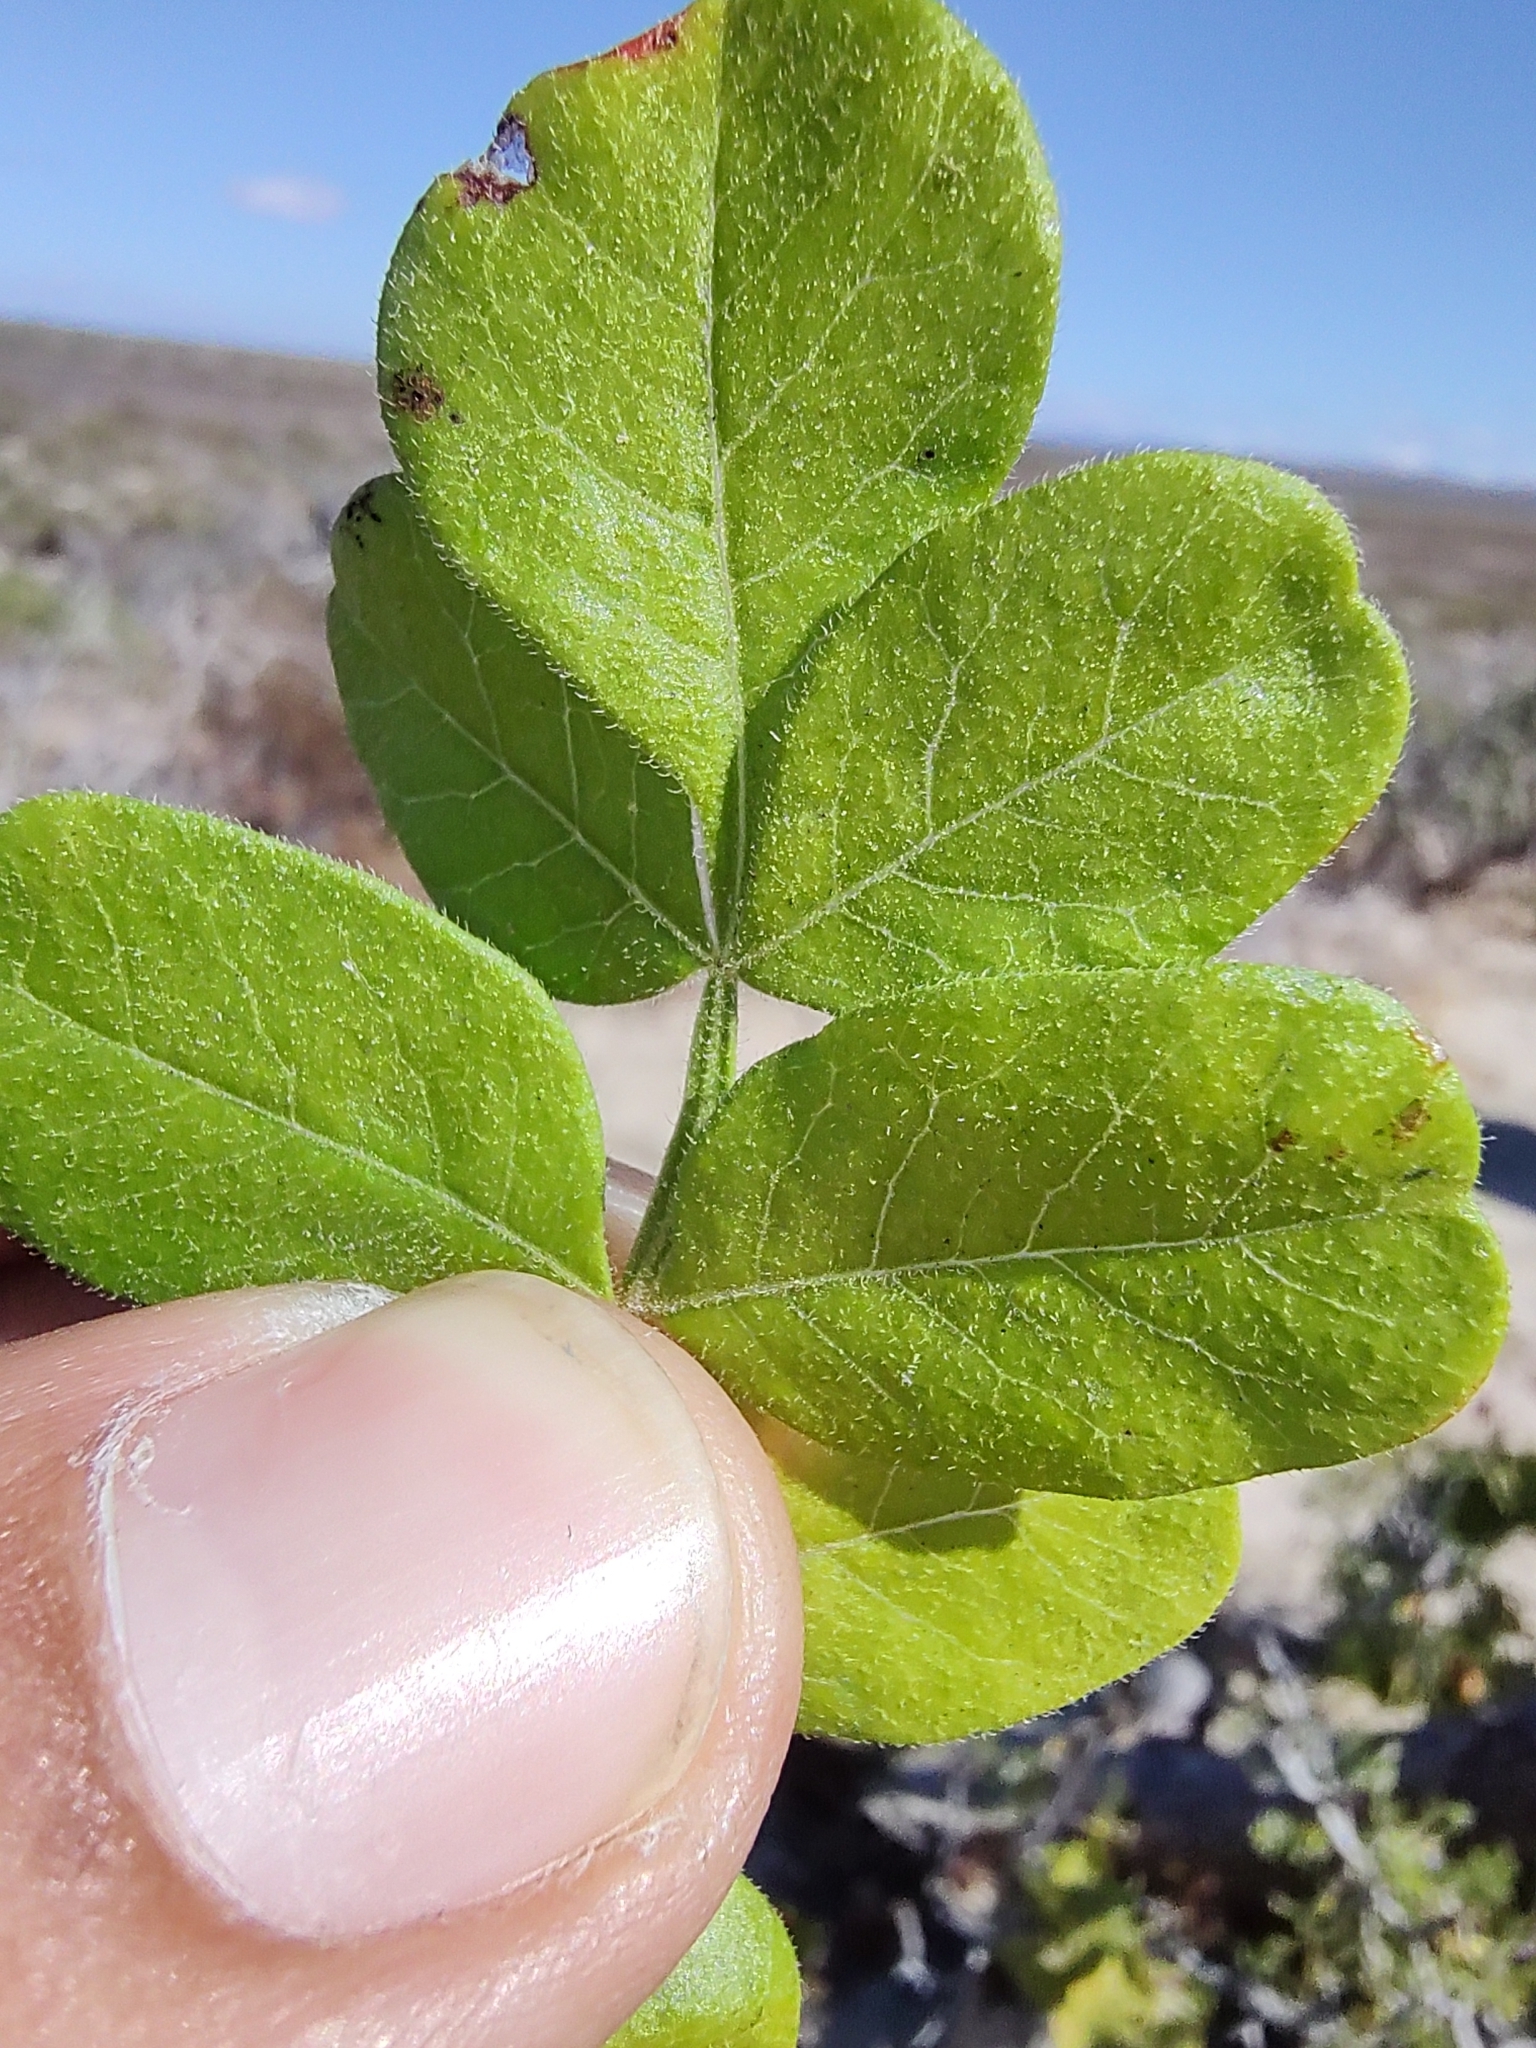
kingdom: Plantae
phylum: Tracheophyta
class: Magnoliopsida
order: Sapindales
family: Anacardiaceae
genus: Cyrtocarpa
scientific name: Cyrtocarpa edulis
